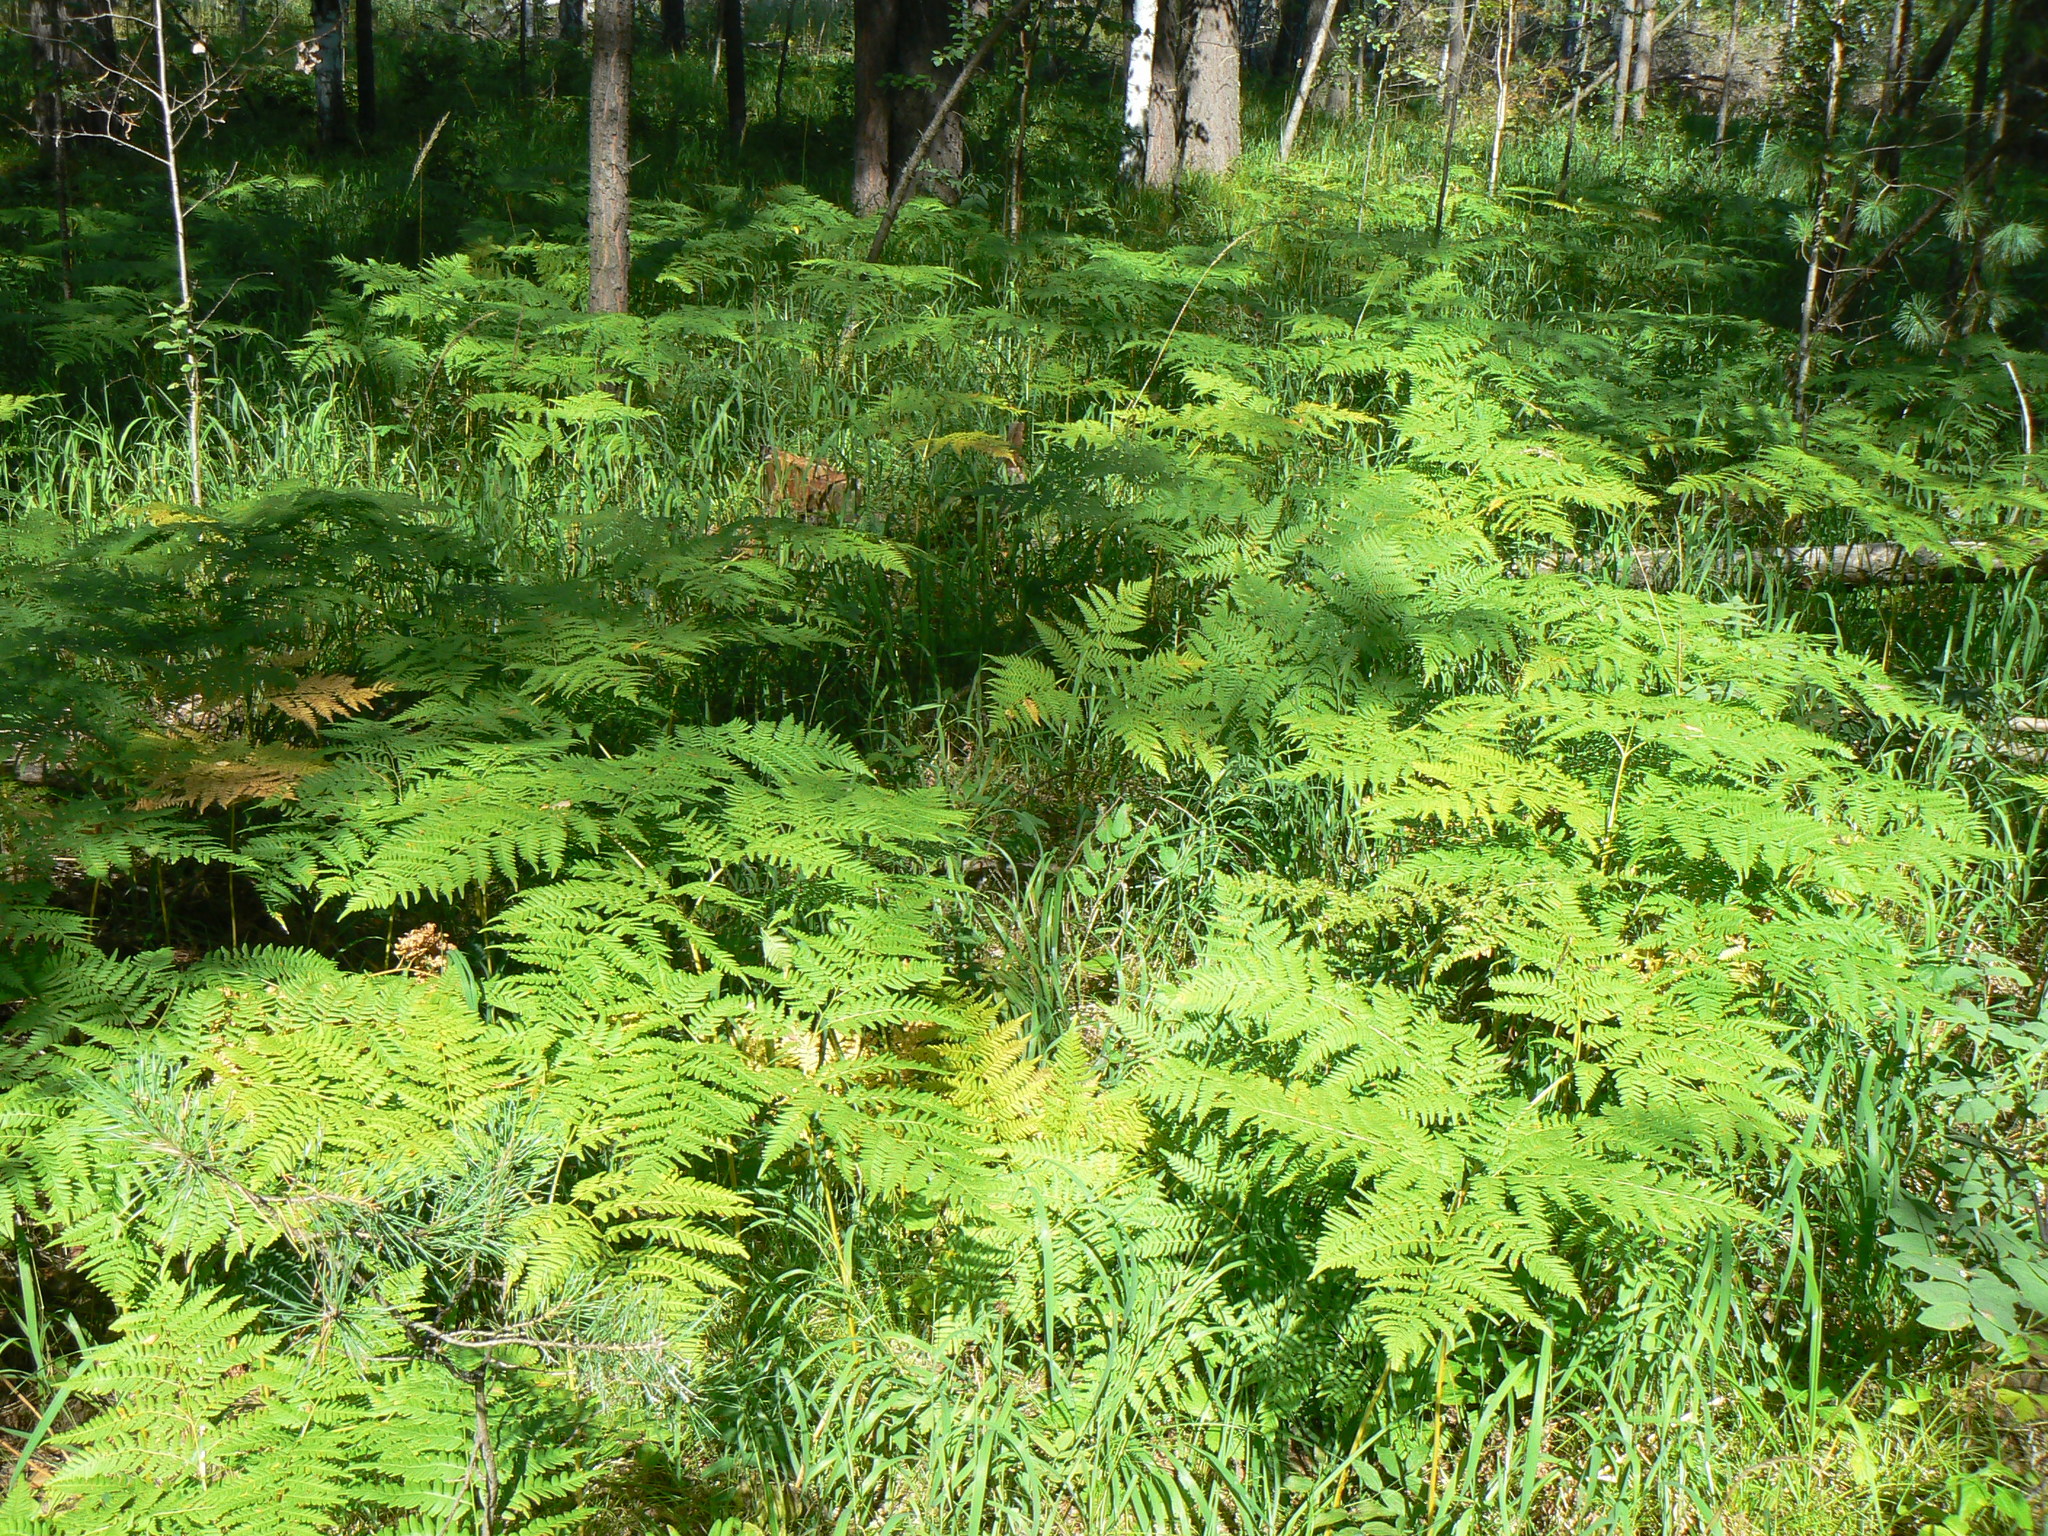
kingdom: Plantae
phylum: Tracheophyta
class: Polypodiopsida
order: Polypodiales
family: Dennstaedtiaceae
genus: Pteridium
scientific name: Pteridium aquilinum
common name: Bracken
